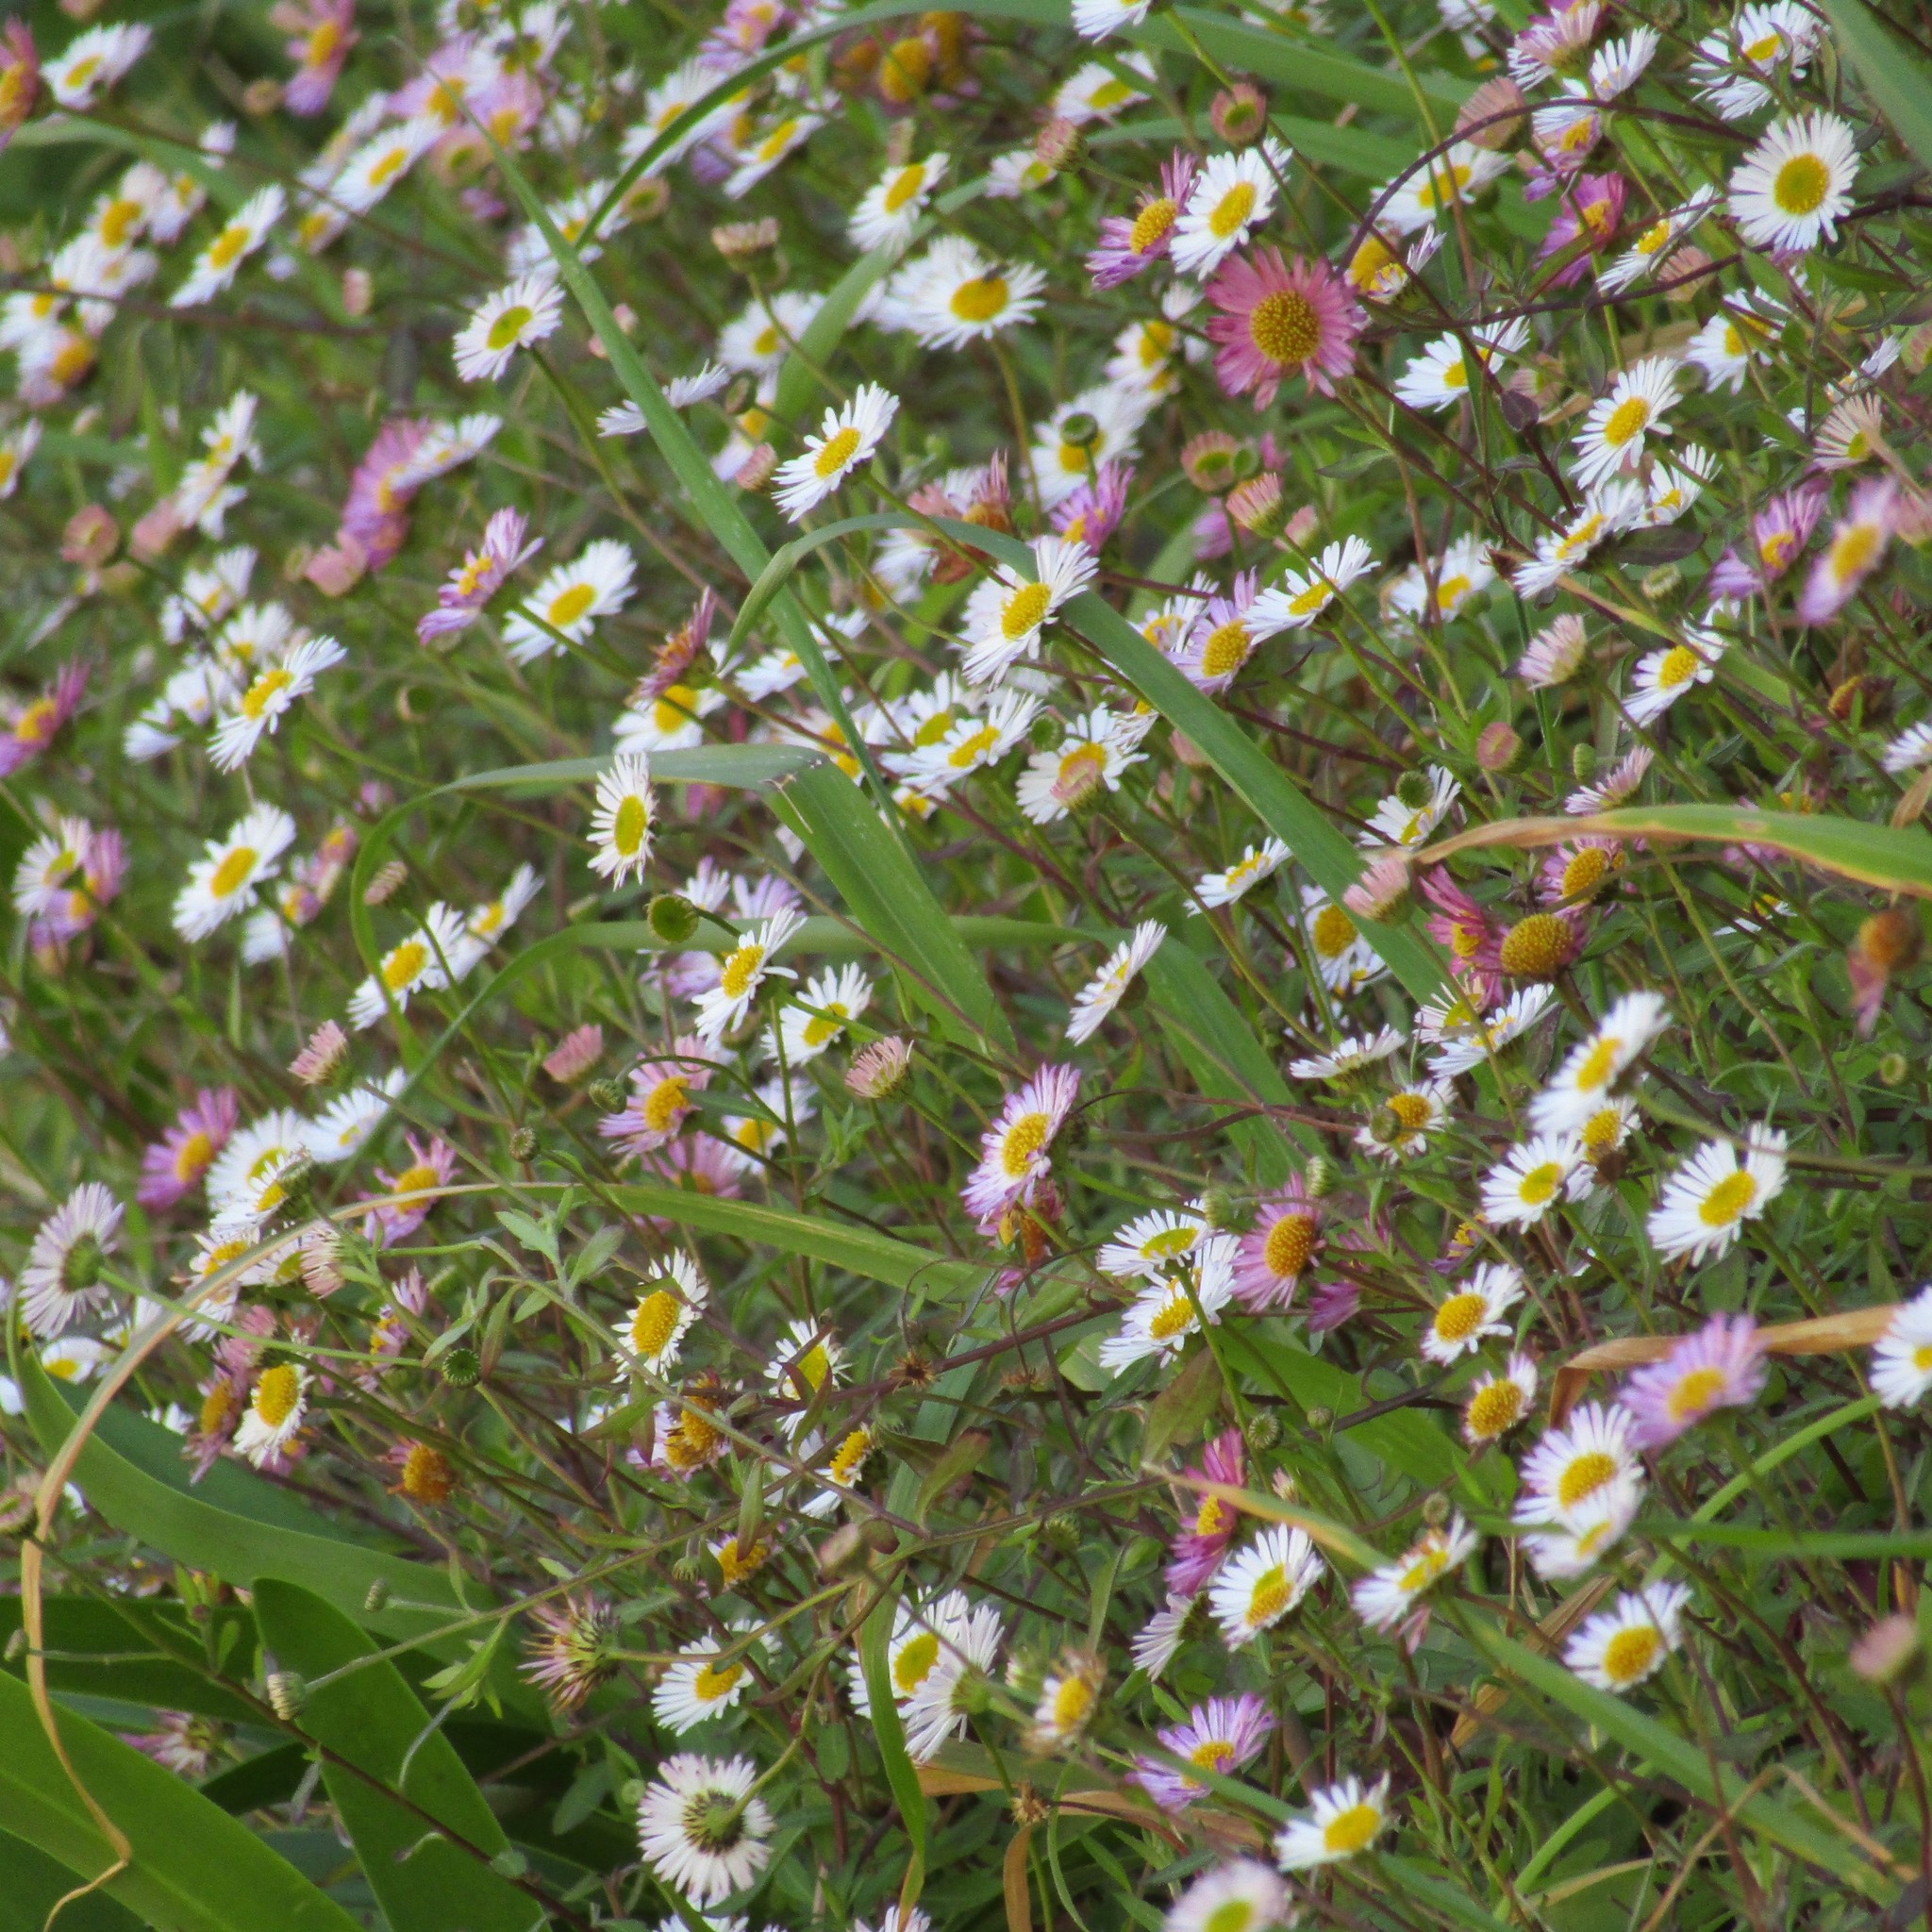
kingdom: Plantae
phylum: Tracheophyta
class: Magnoliopsida
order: Asterales
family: Asteraceae
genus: Erigeron
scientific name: Erigeron karvinskianus
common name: Mexican fleabane
